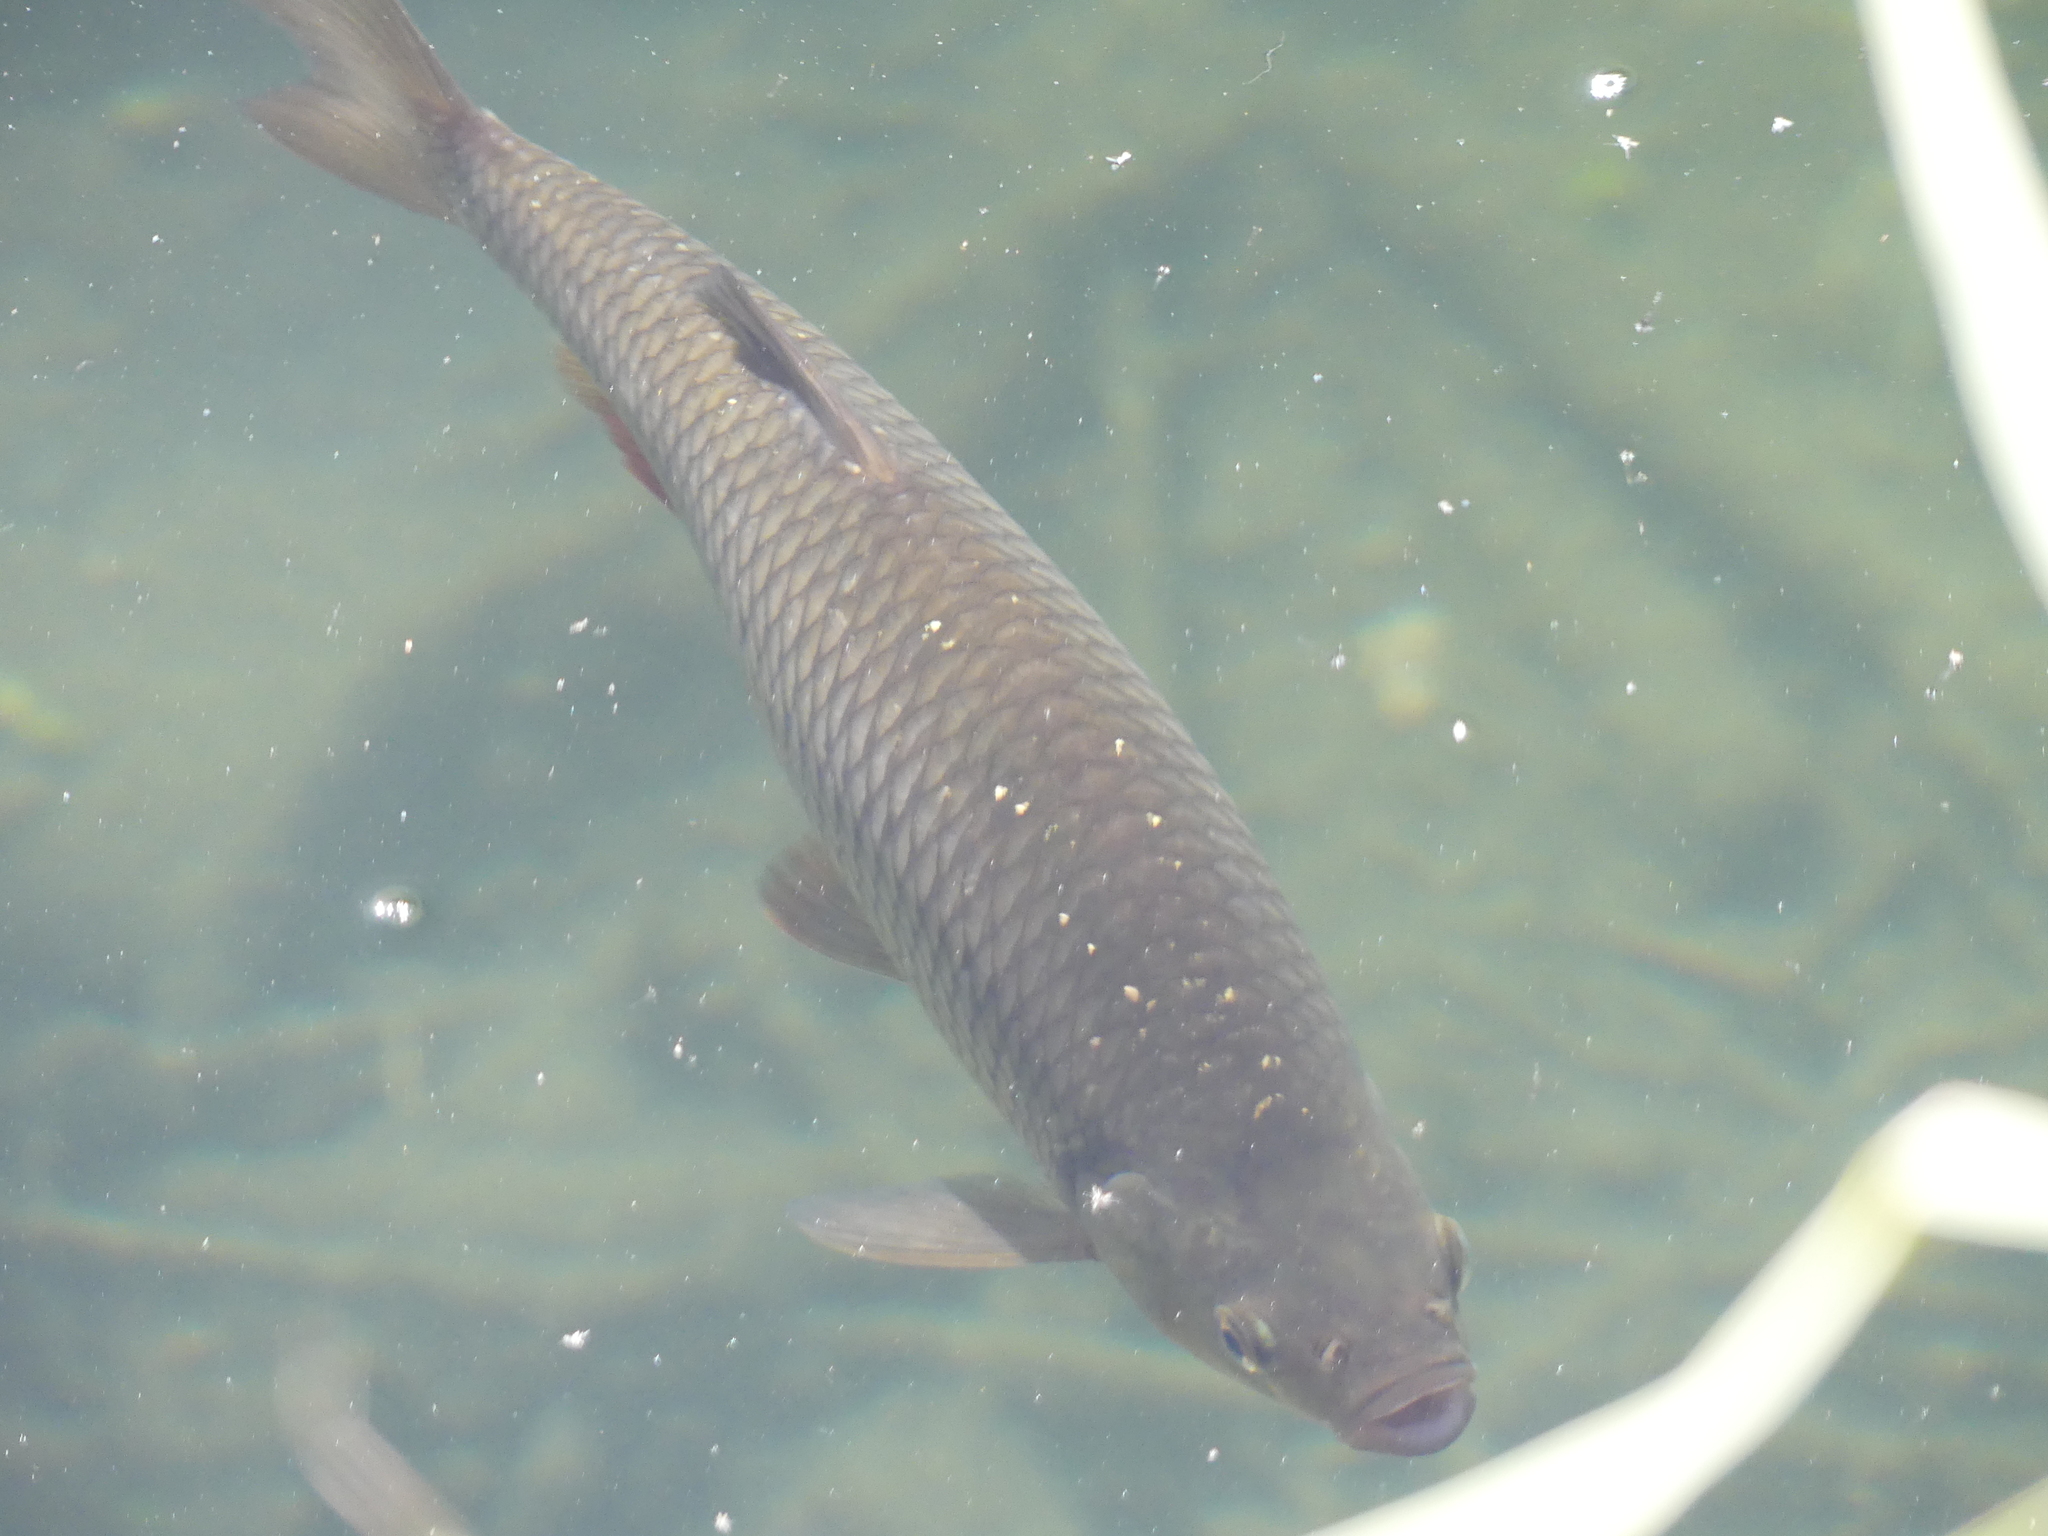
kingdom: Animalia
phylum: Chordata
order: Cypriniformes
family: Cyprinidae
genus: Scardinius
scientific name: Scardinius erythrophthalmus
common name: Rudd
